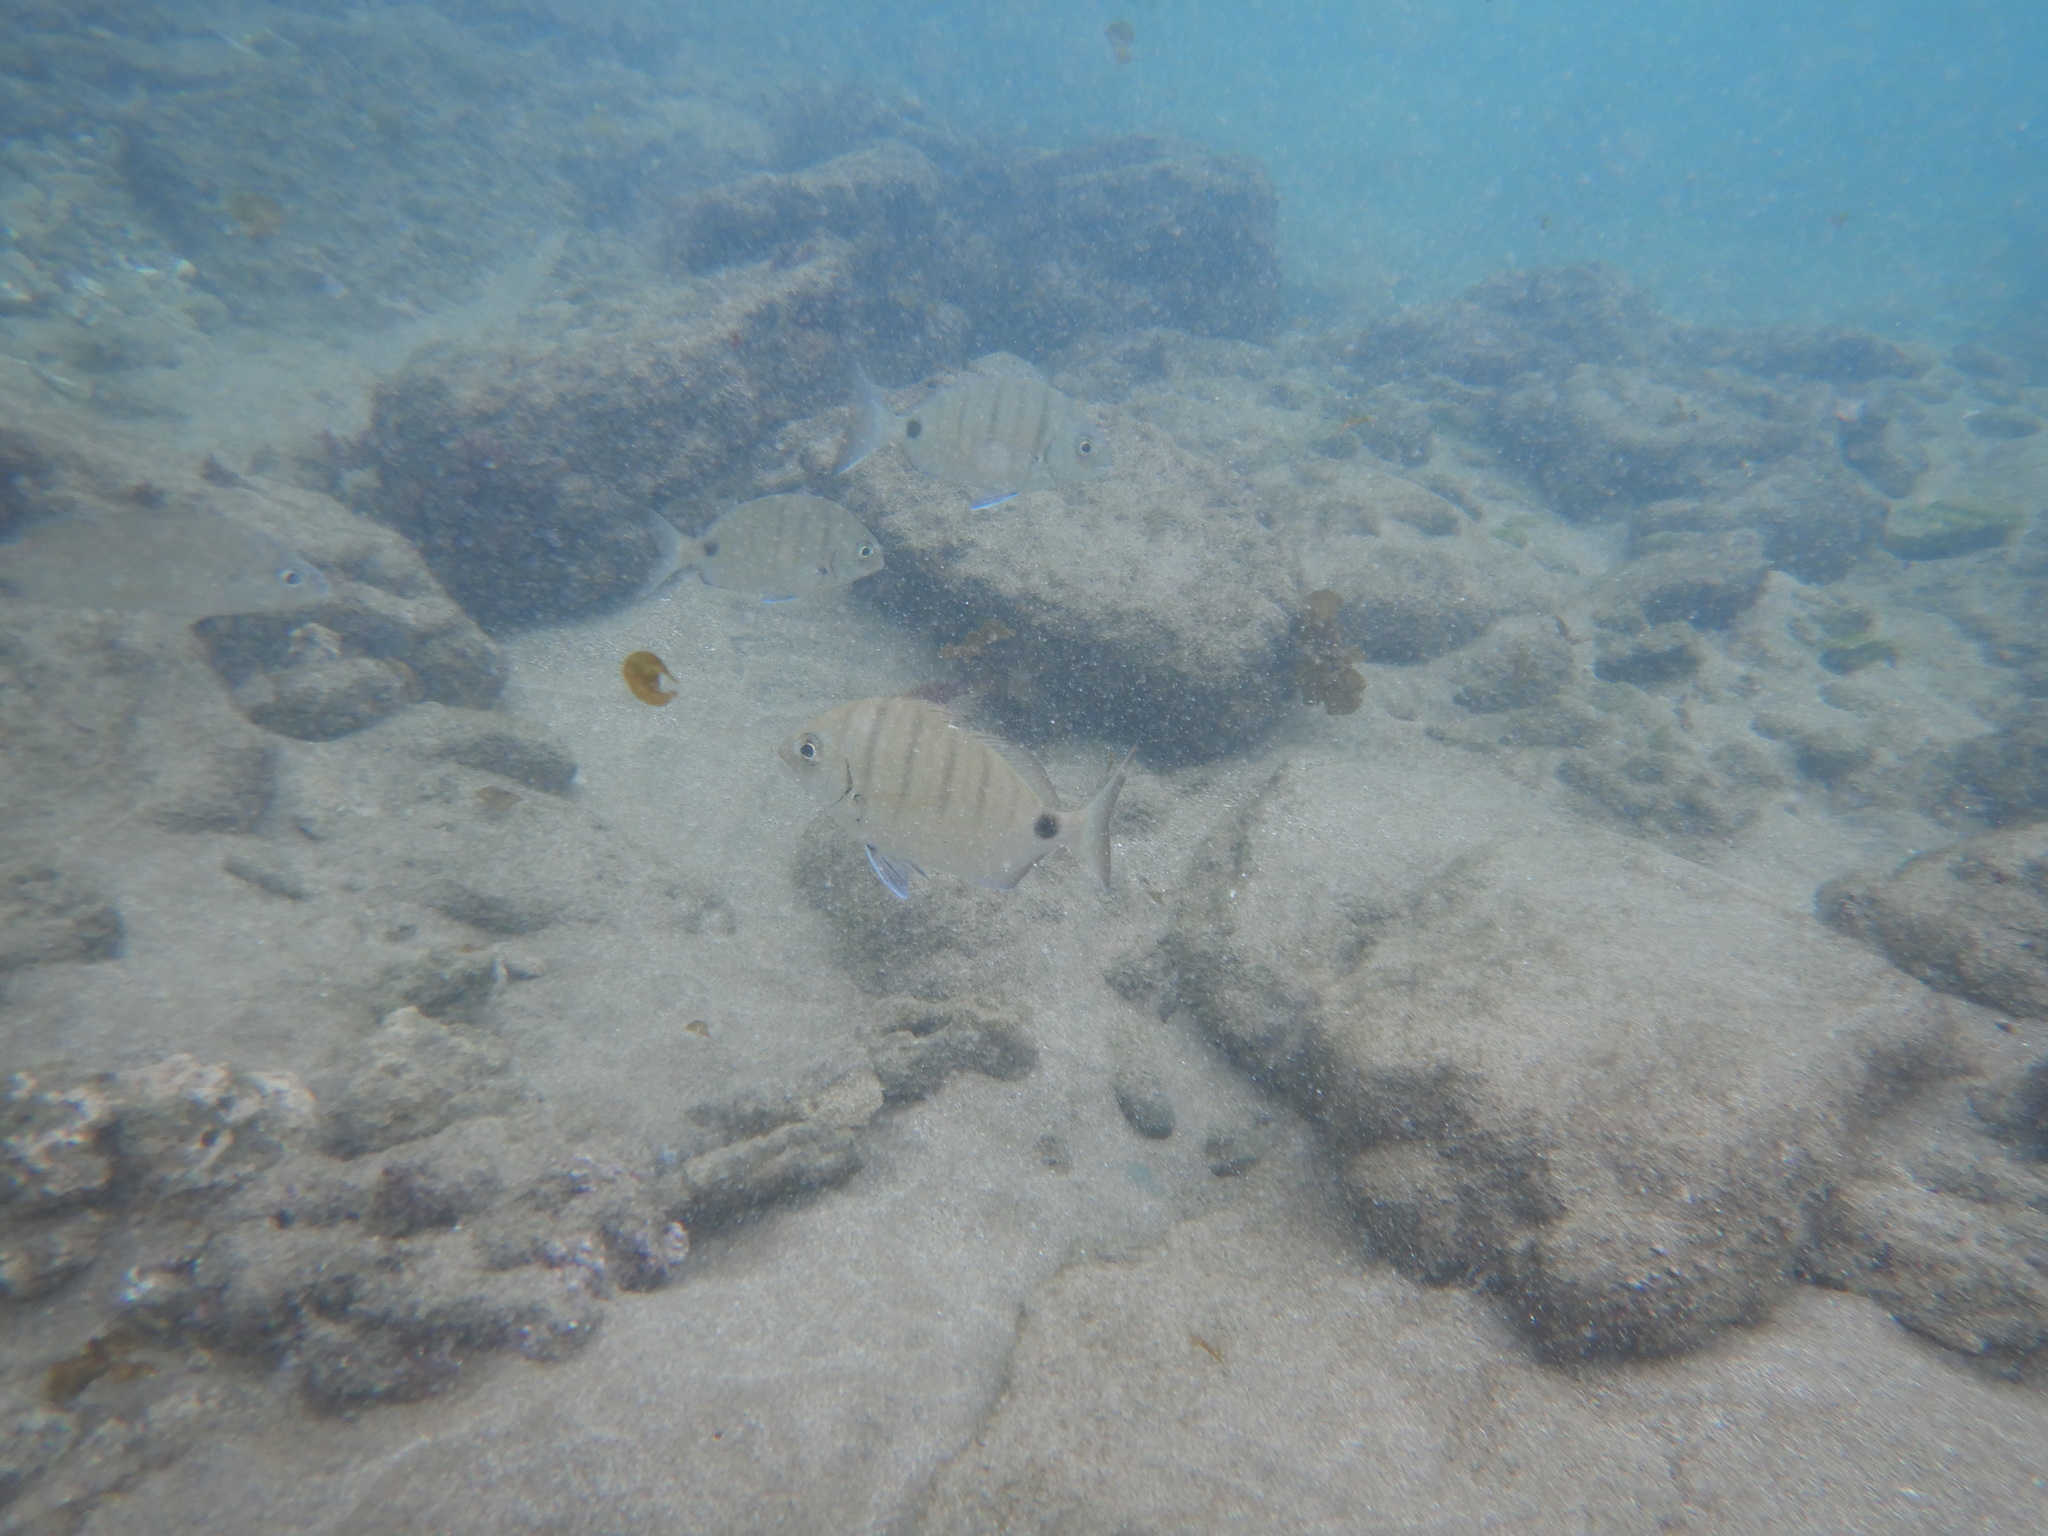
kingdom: Animalia
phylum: Chordata
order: Perciformes
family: Sparidae
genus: Diplodus
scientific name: Diplodus cadenati
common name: Moroccan white seabream
